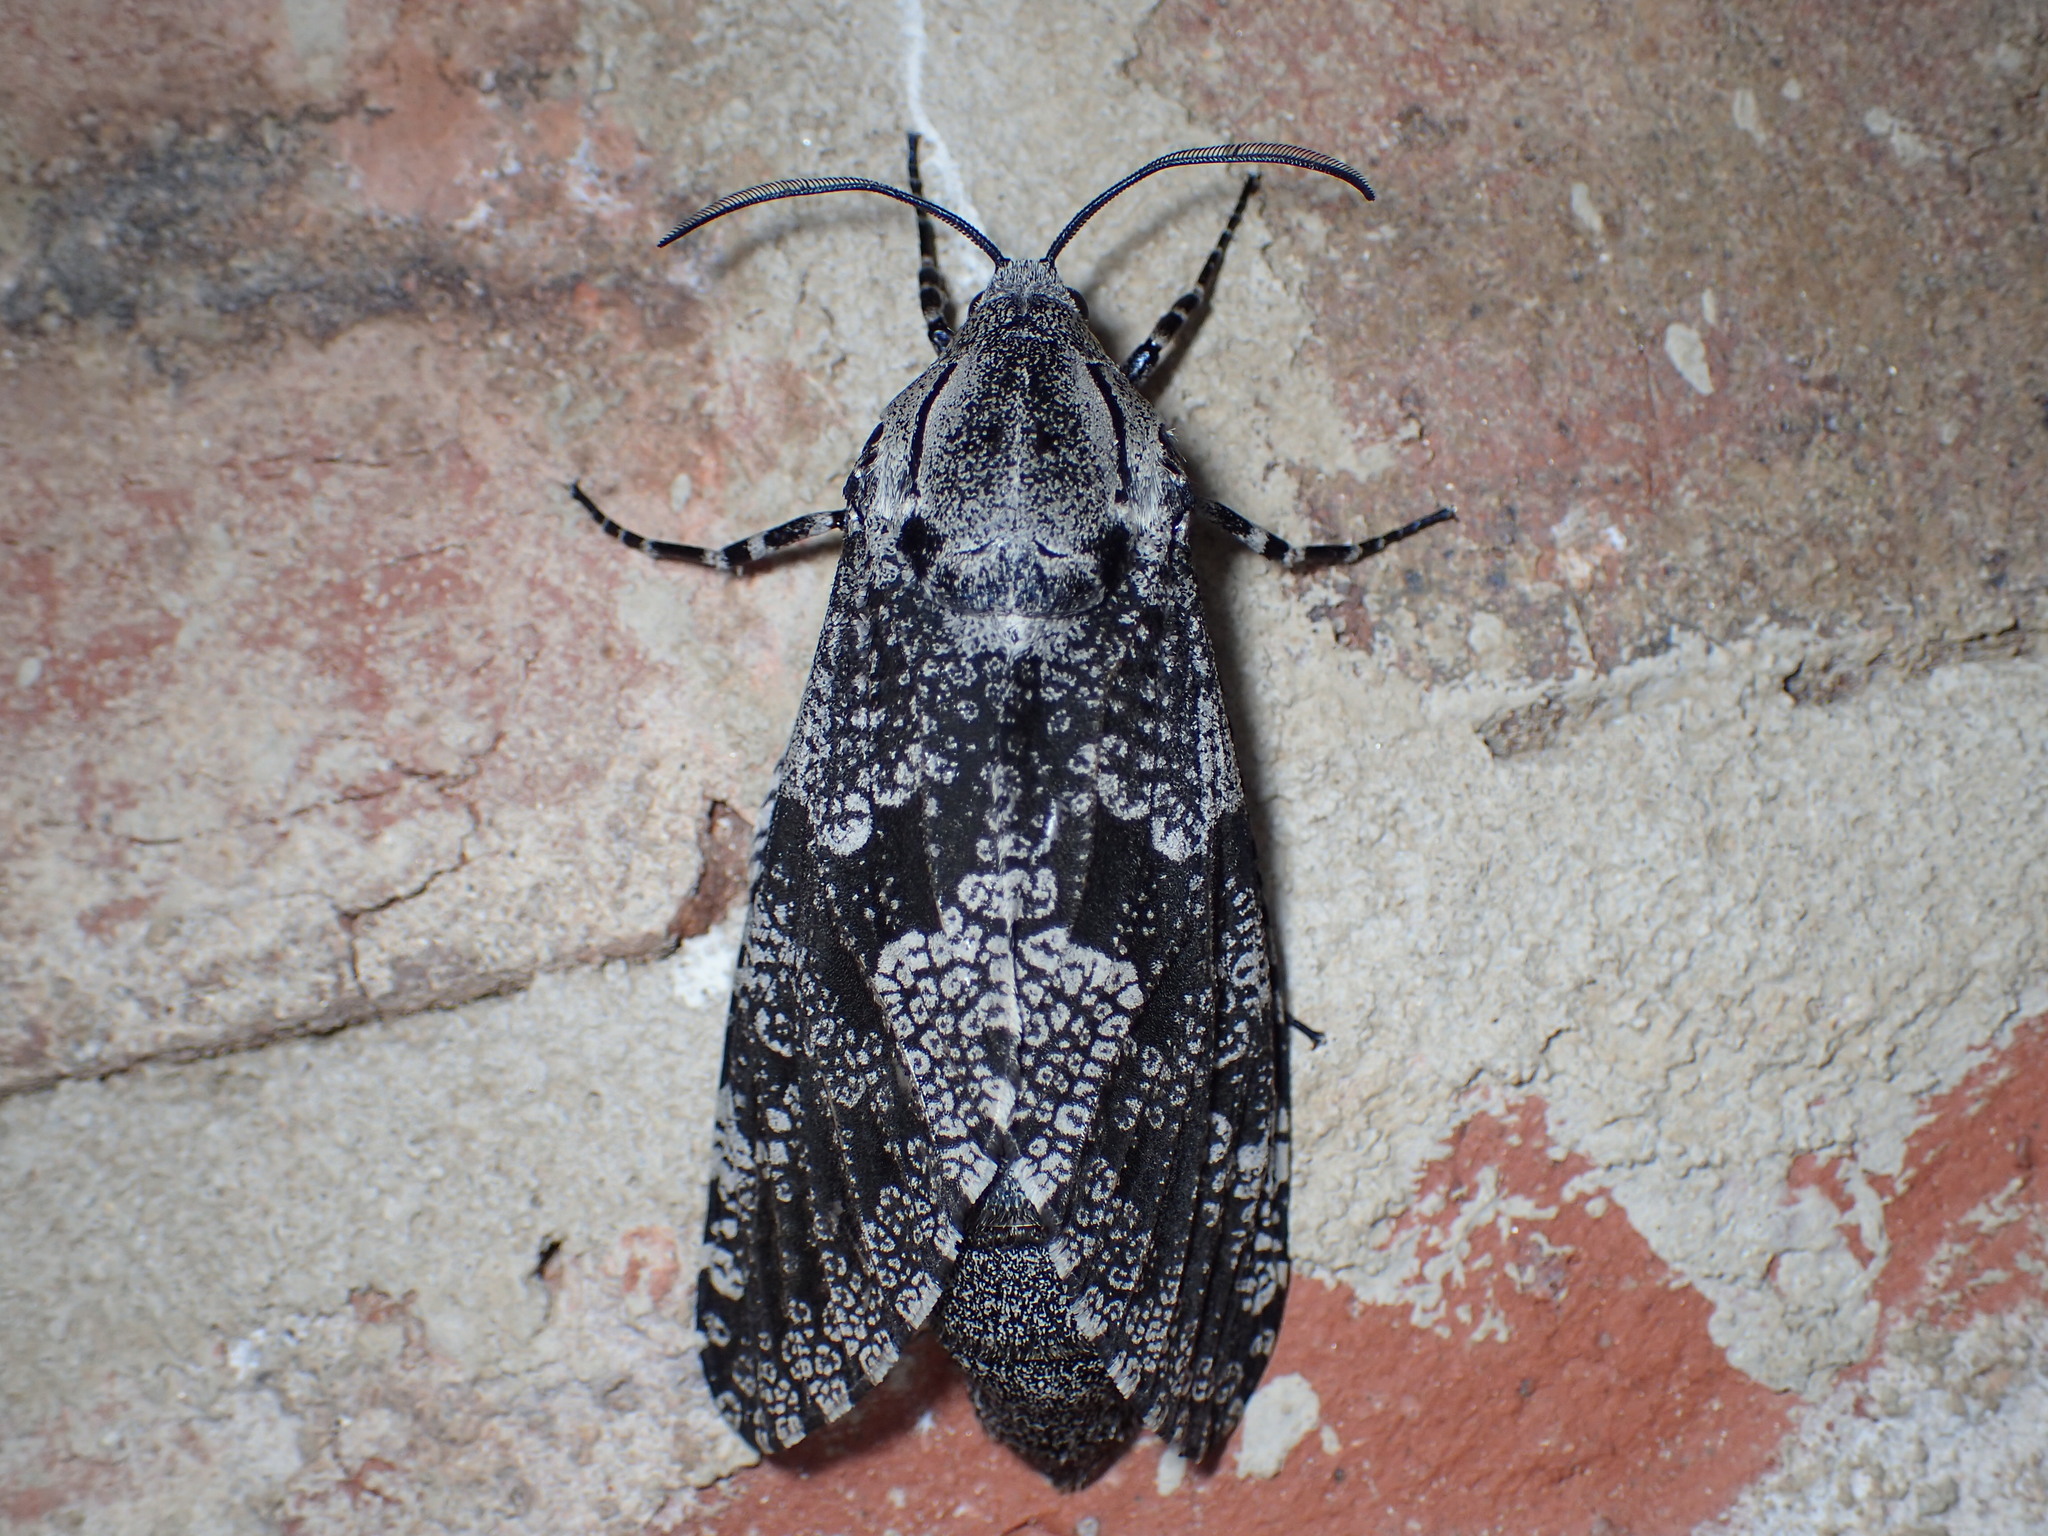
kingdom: Animalia
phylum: Arthropoda
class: Insecta
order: Lepidoptera
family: Cossidae
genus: Prionoxystus
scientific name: Prionoxystus robiniae
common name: Carpenterworm
